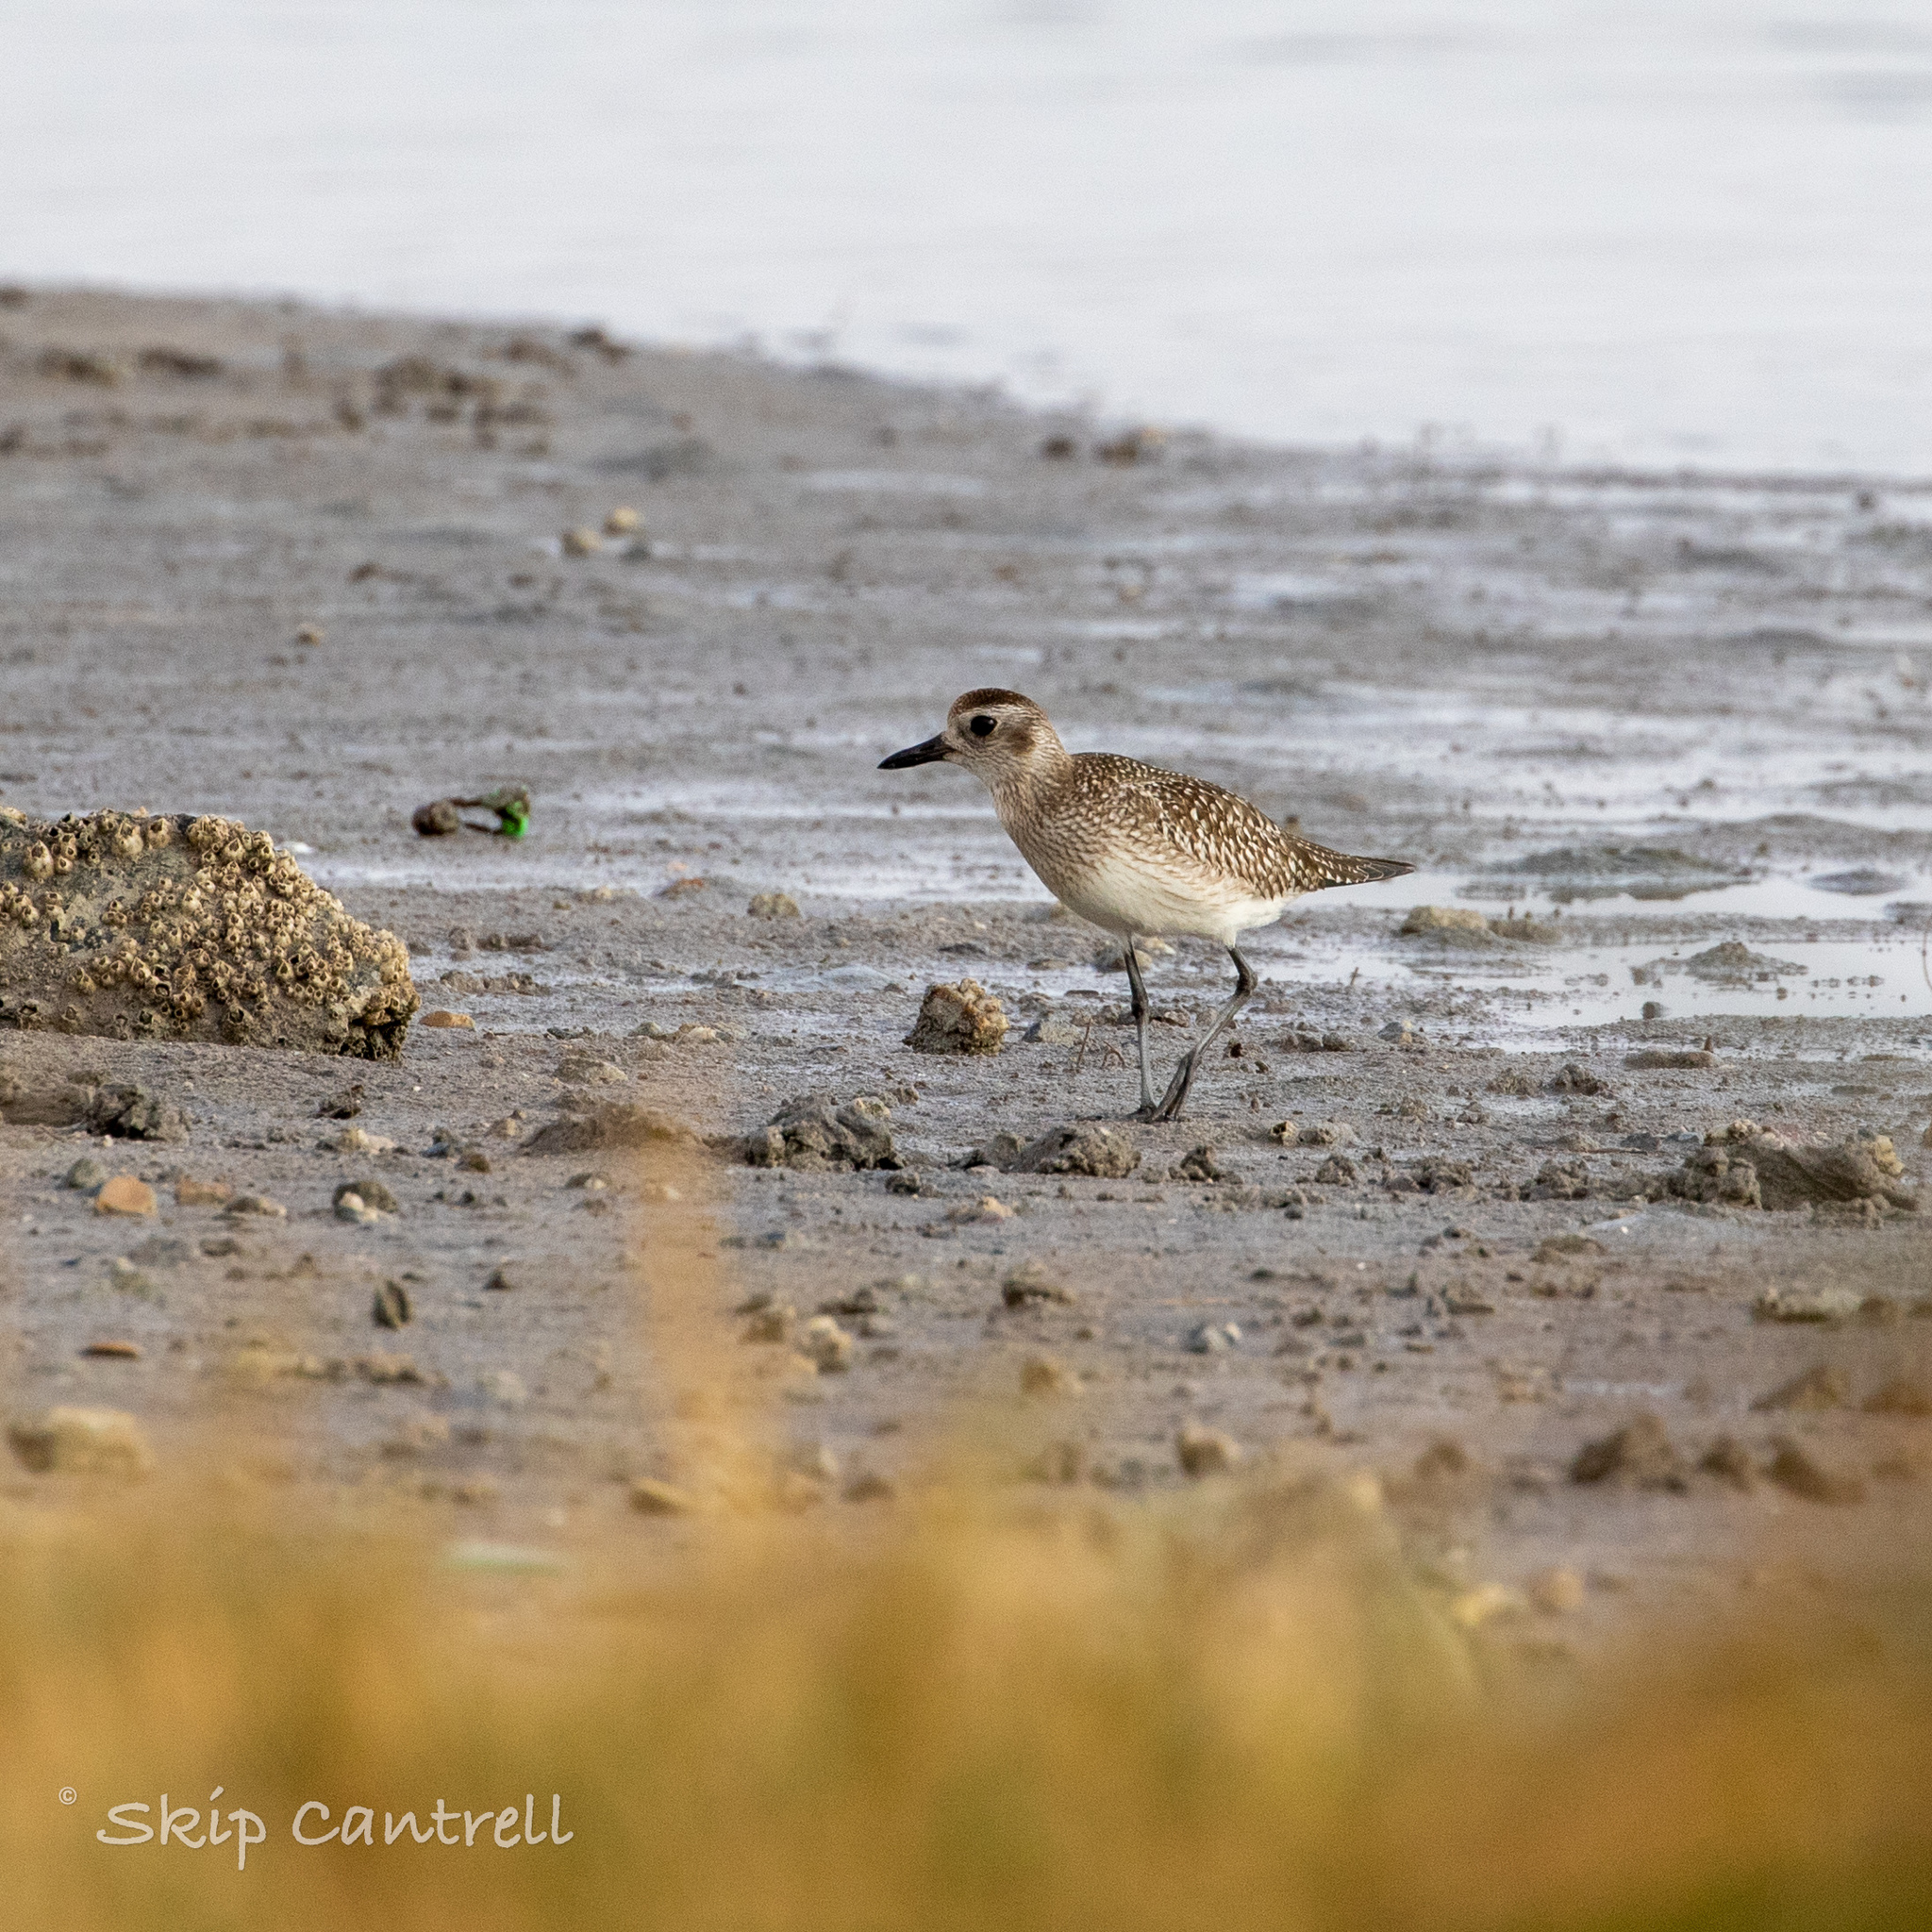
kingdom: Animalia
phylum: Chordata
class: Aves
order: Charadriiformes
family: Charadriidae
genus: Pluvialis
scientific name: Pluvialis squatarola
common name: Grey plover
